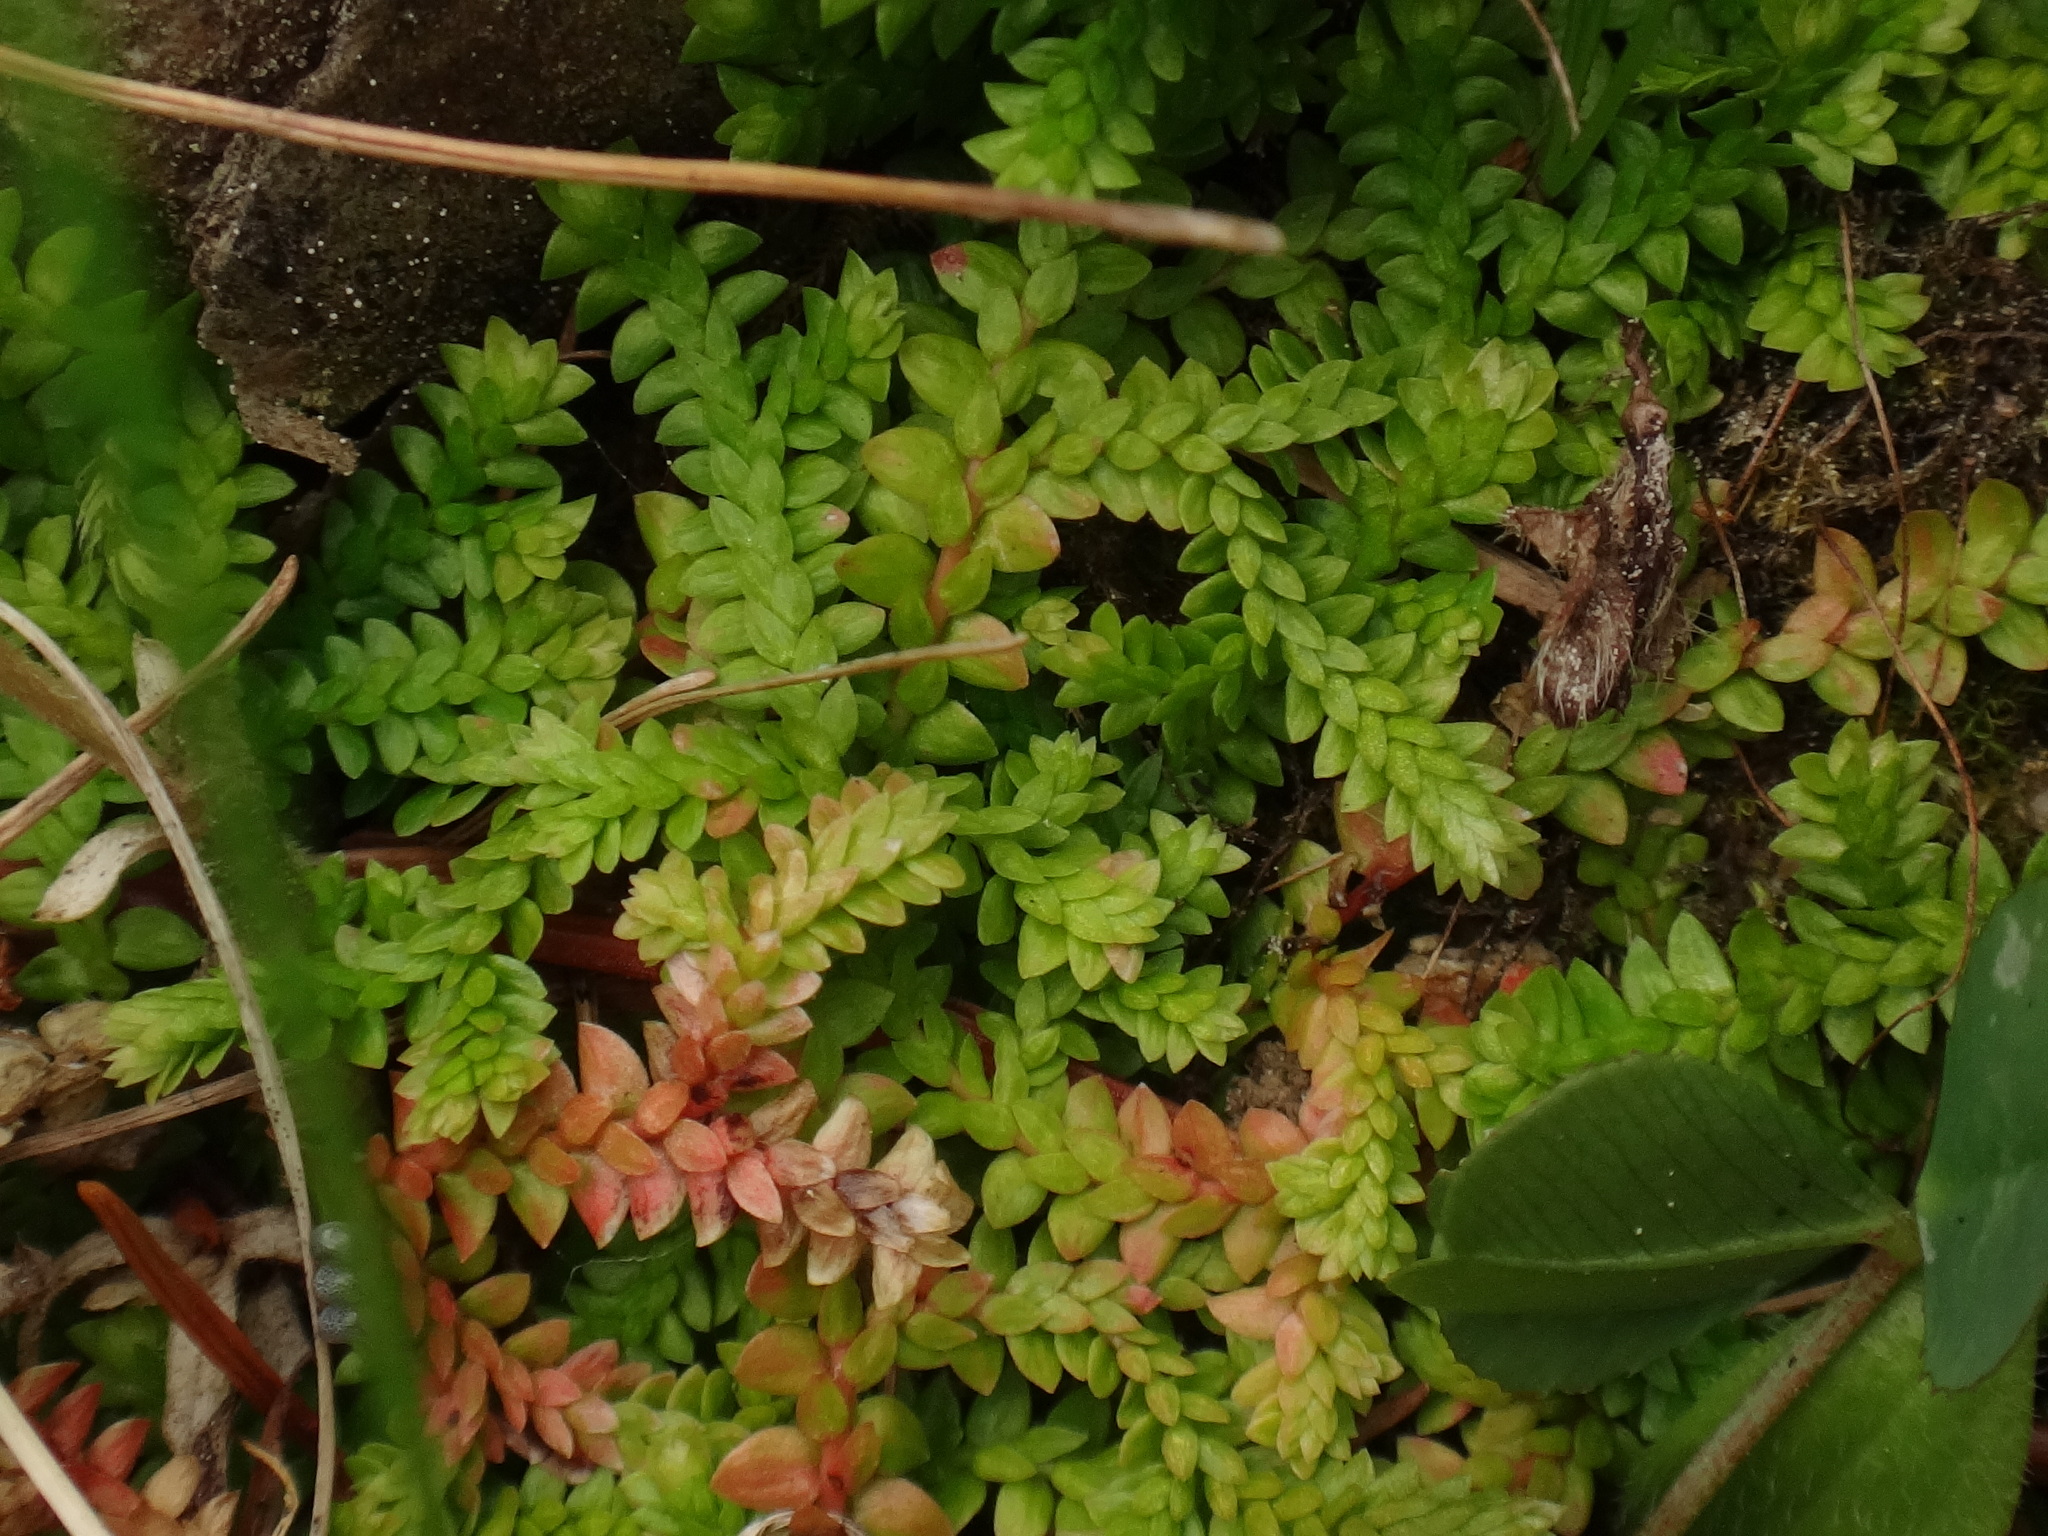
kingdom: Plantae
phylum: Tracheophyta
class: Lycopodiopsida
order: Selaginellales
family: Selaginellaceae
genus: Selaginella
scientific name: Selaginella helvetica
